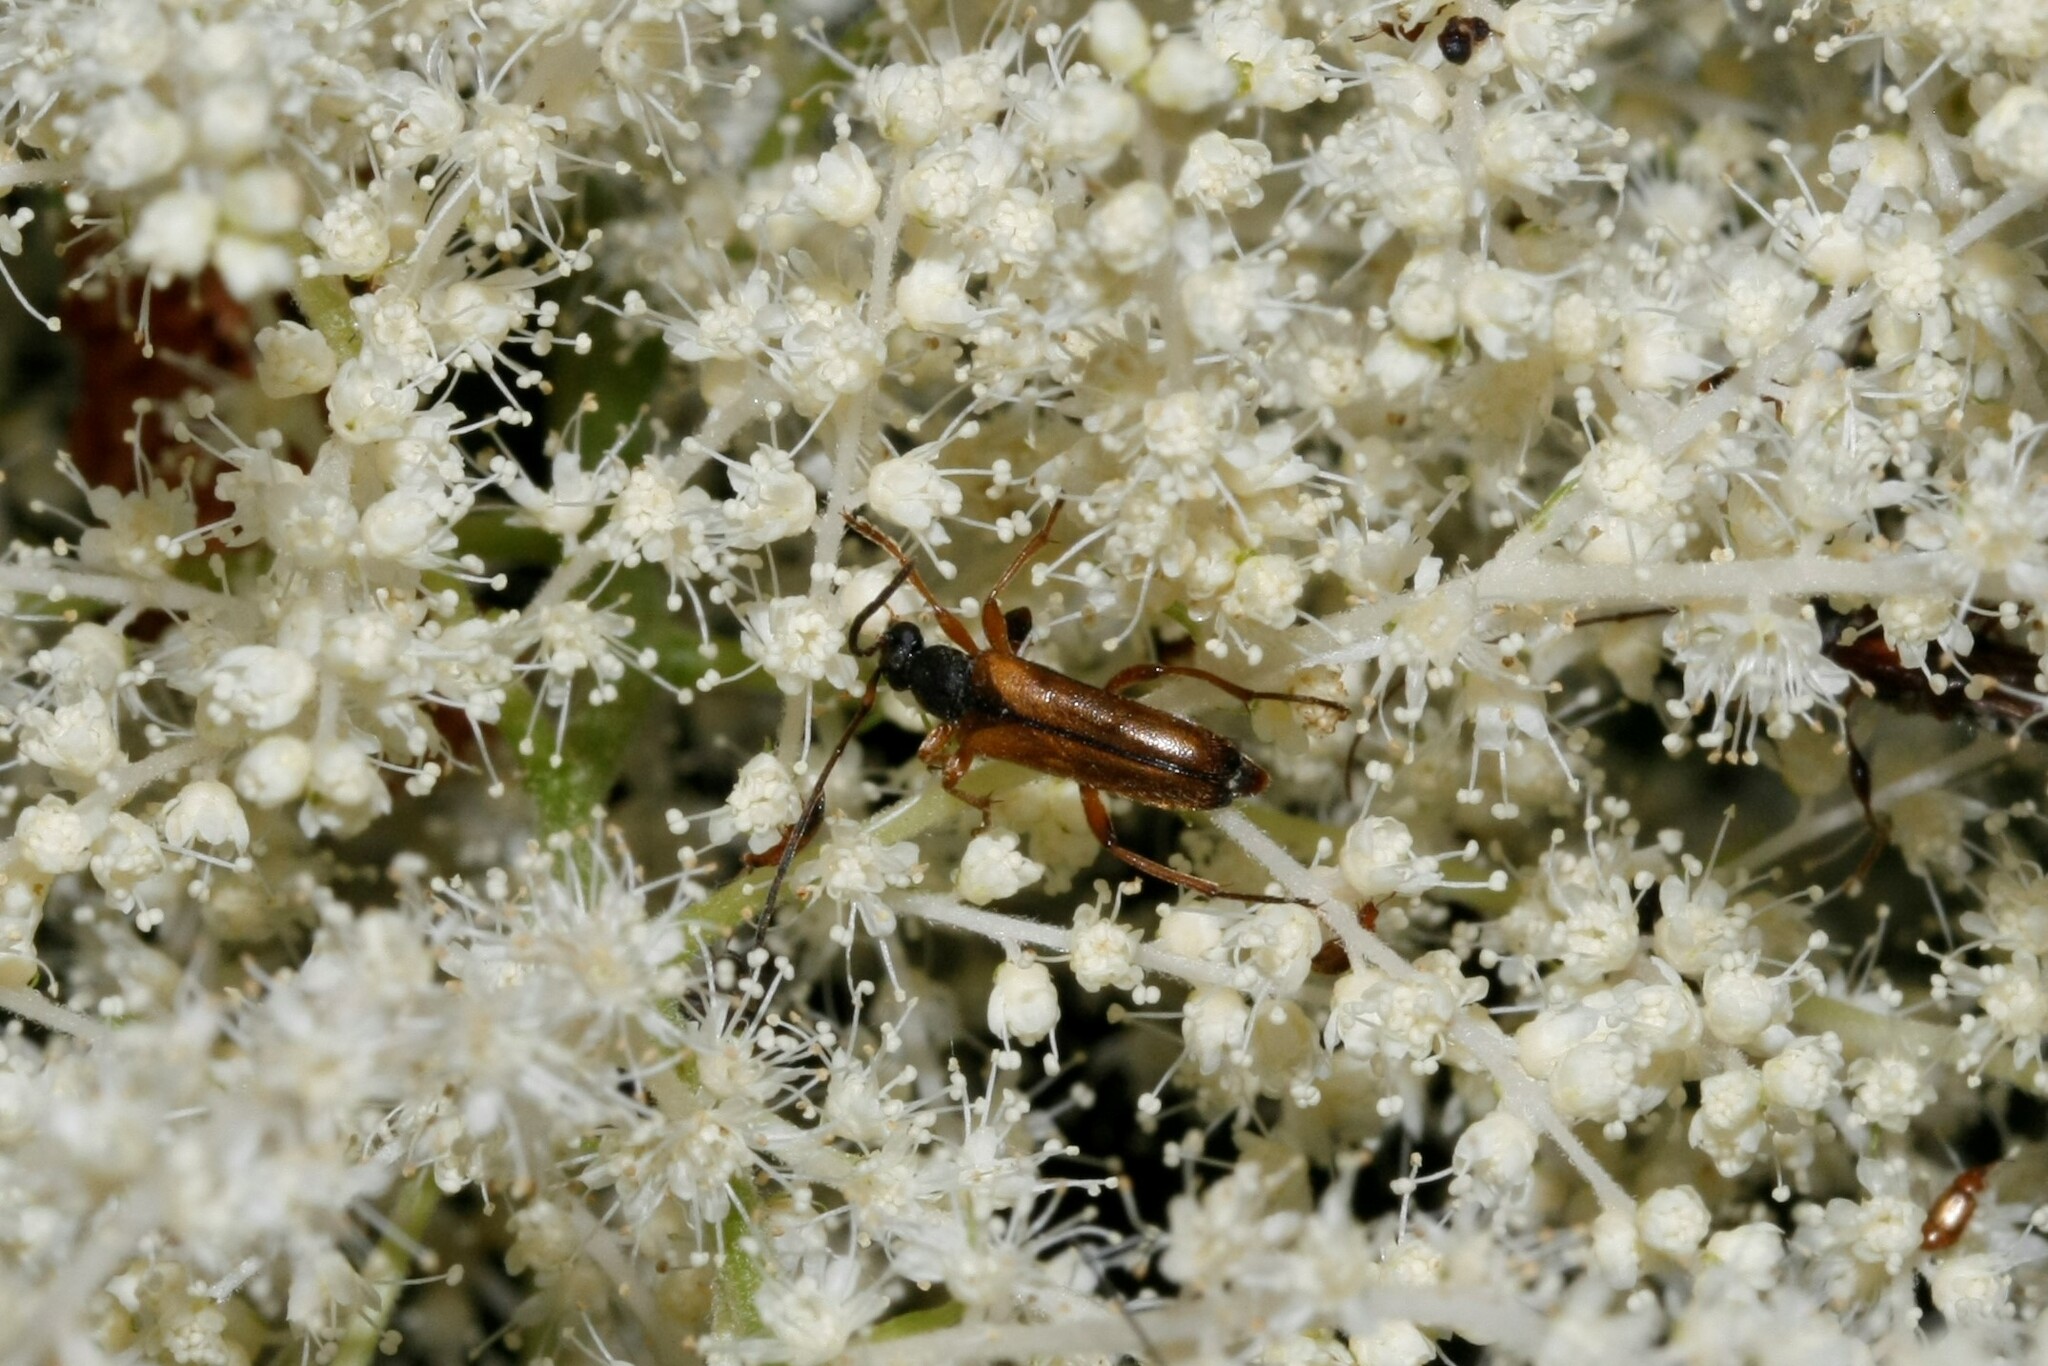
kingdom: Animalia
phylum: Arthropoda
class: Insecta
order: Coleoptera
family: Cerambycidae
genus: Alosterna
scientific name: Alosterna tabacicolor
